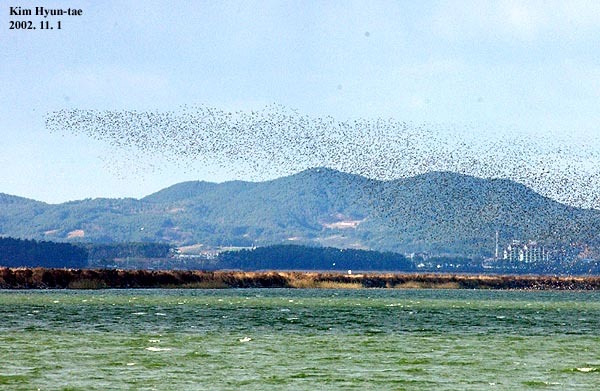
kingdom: Animalia
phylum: Chordata
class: Aves
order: Anseriformes
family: Anatidae
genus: Sibirionetta
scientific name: Sibirionetta formosa
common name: Baikal teal
